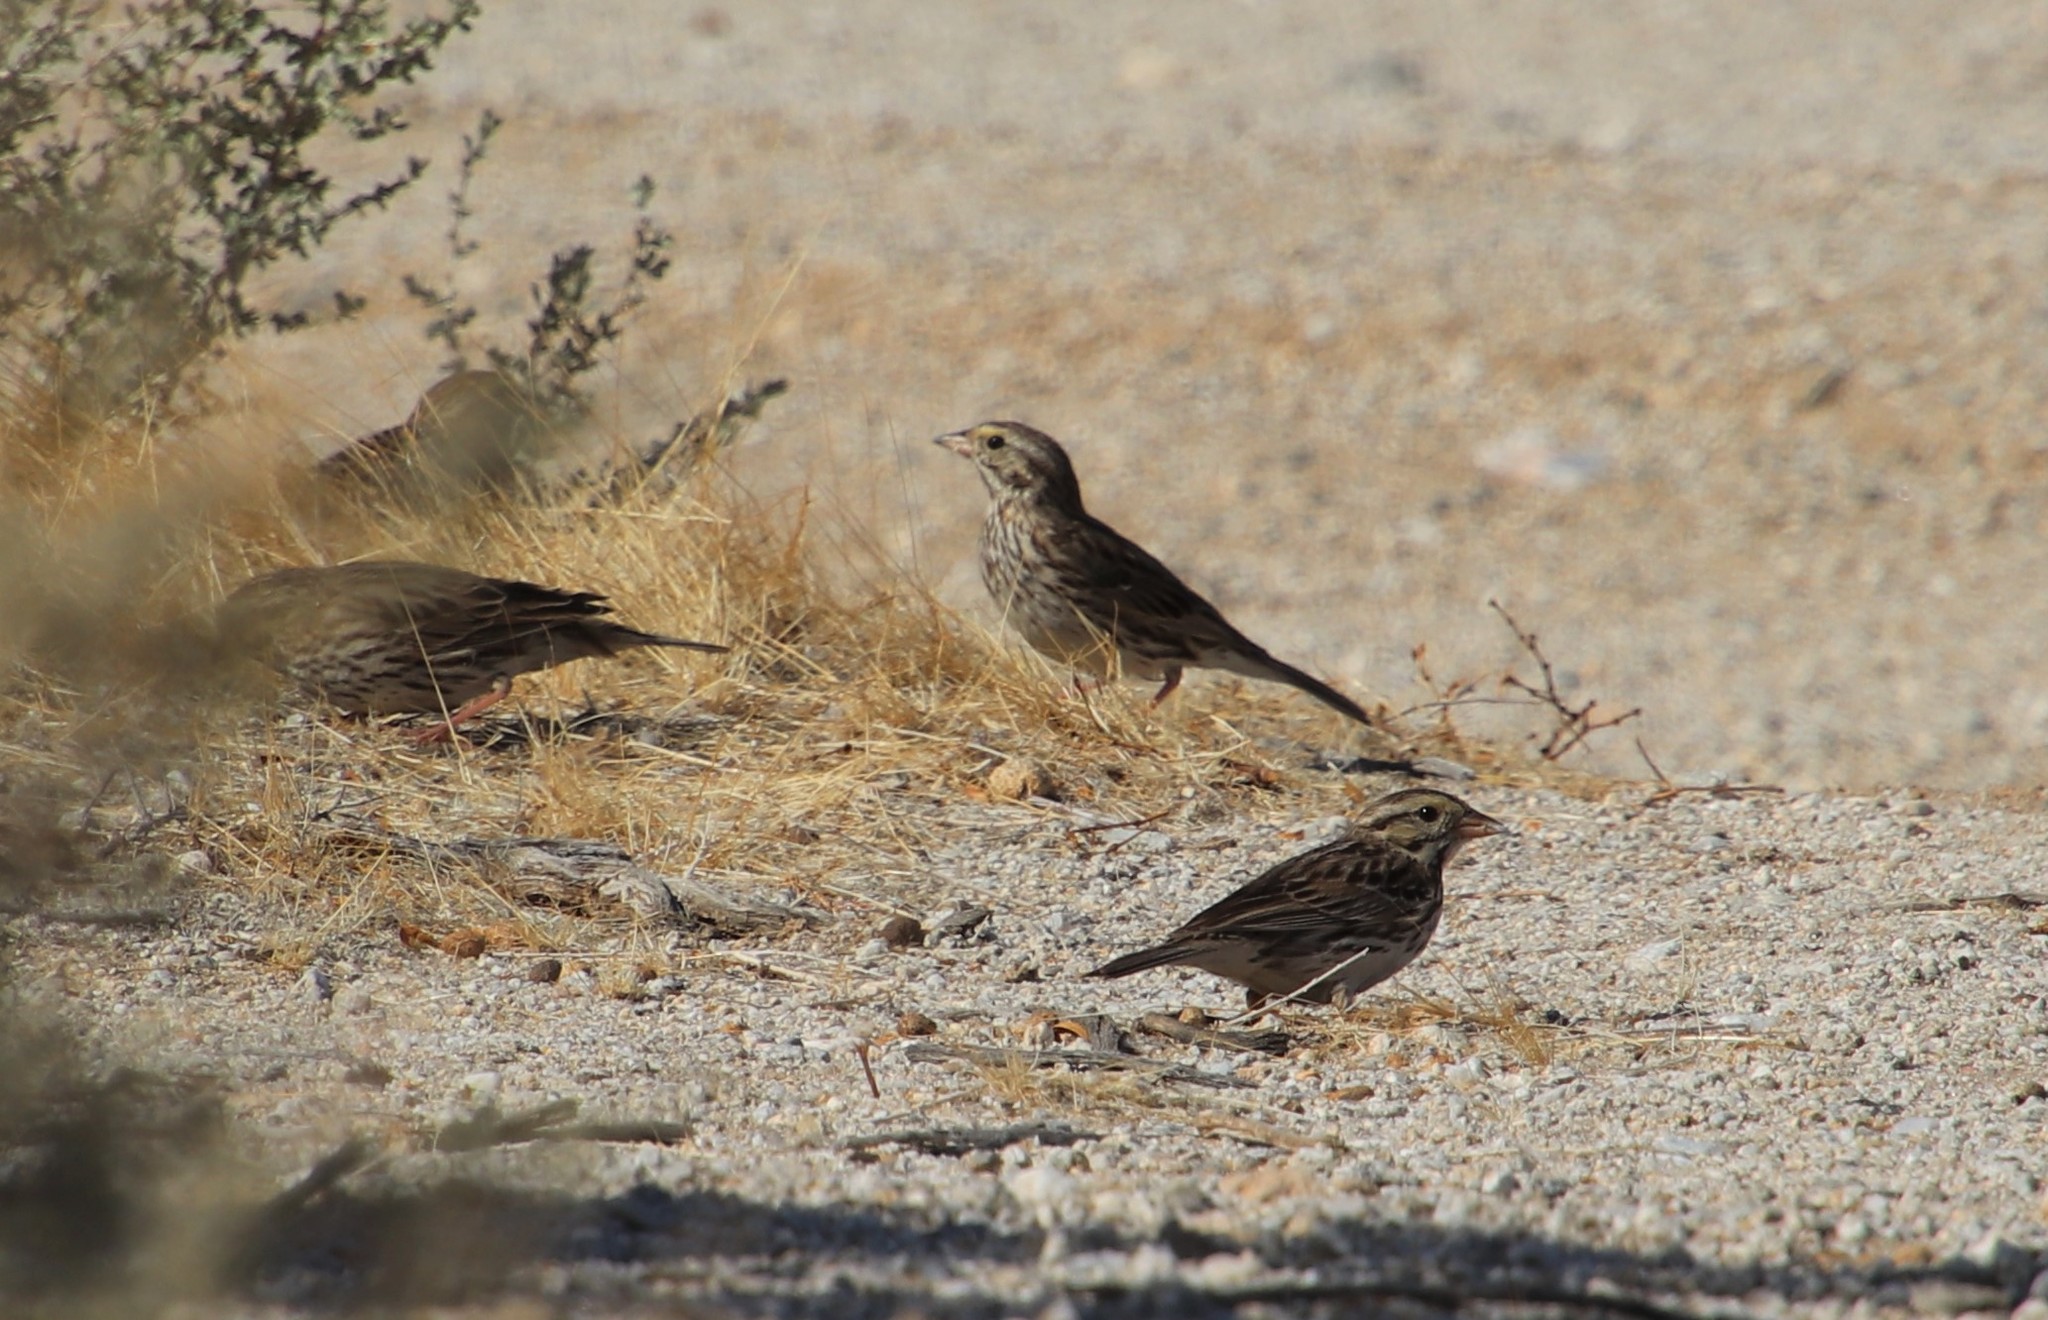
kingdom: Animalia
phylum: Chordata
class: Aves
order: Passeriformes
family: Passerellidae
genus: Passerculus
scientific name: Passerculus sandwichensis
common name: Savannah sparrow
